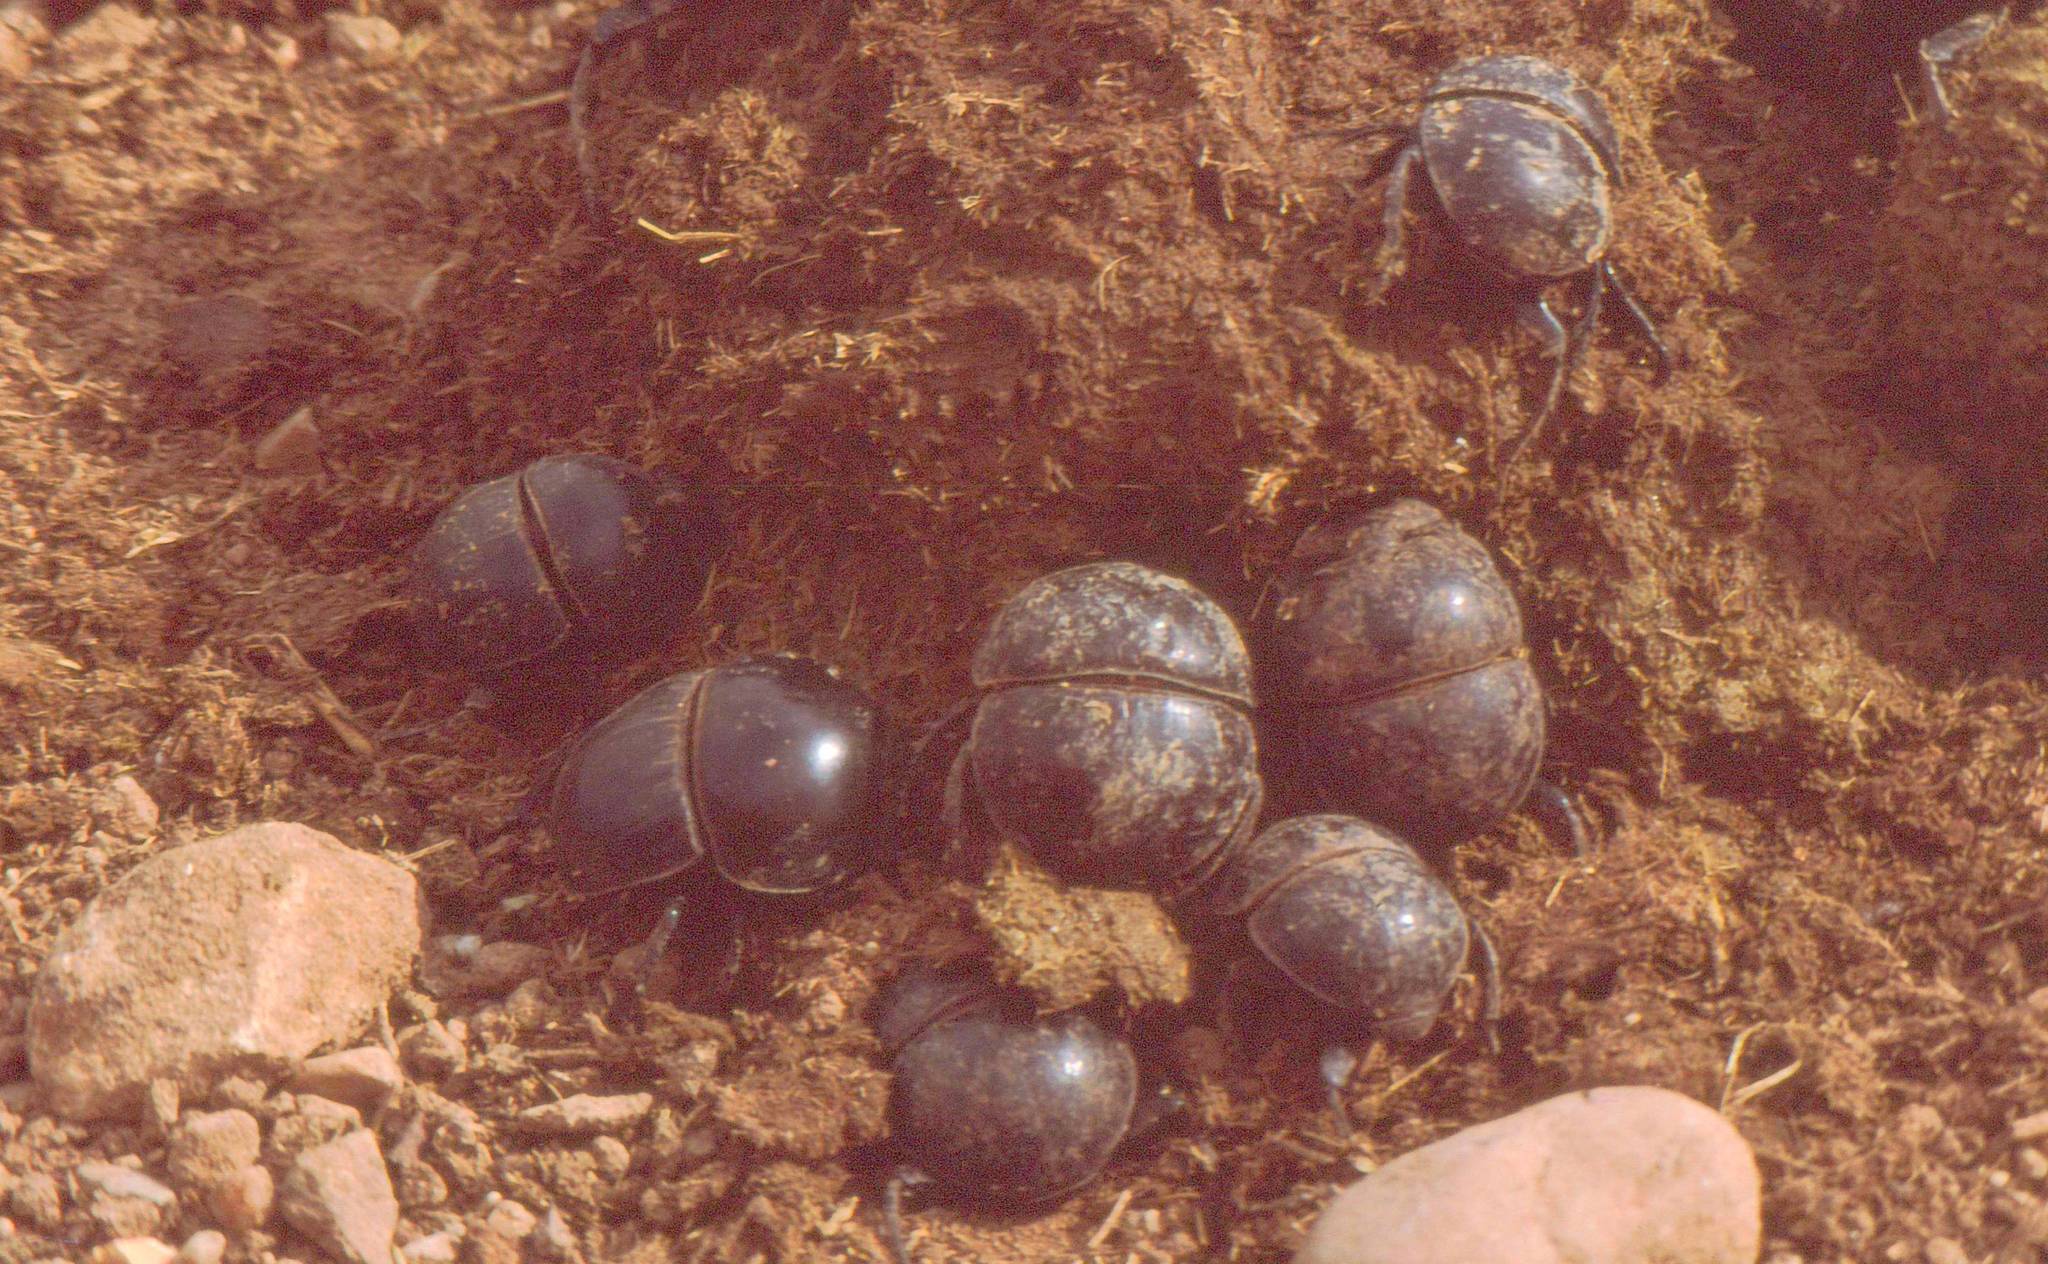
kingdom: Animalia
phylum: Arthropoda
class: Insecta
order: Coleoptera
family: Scarabaeidae
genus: Circellium
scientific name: Circellium bacchus
